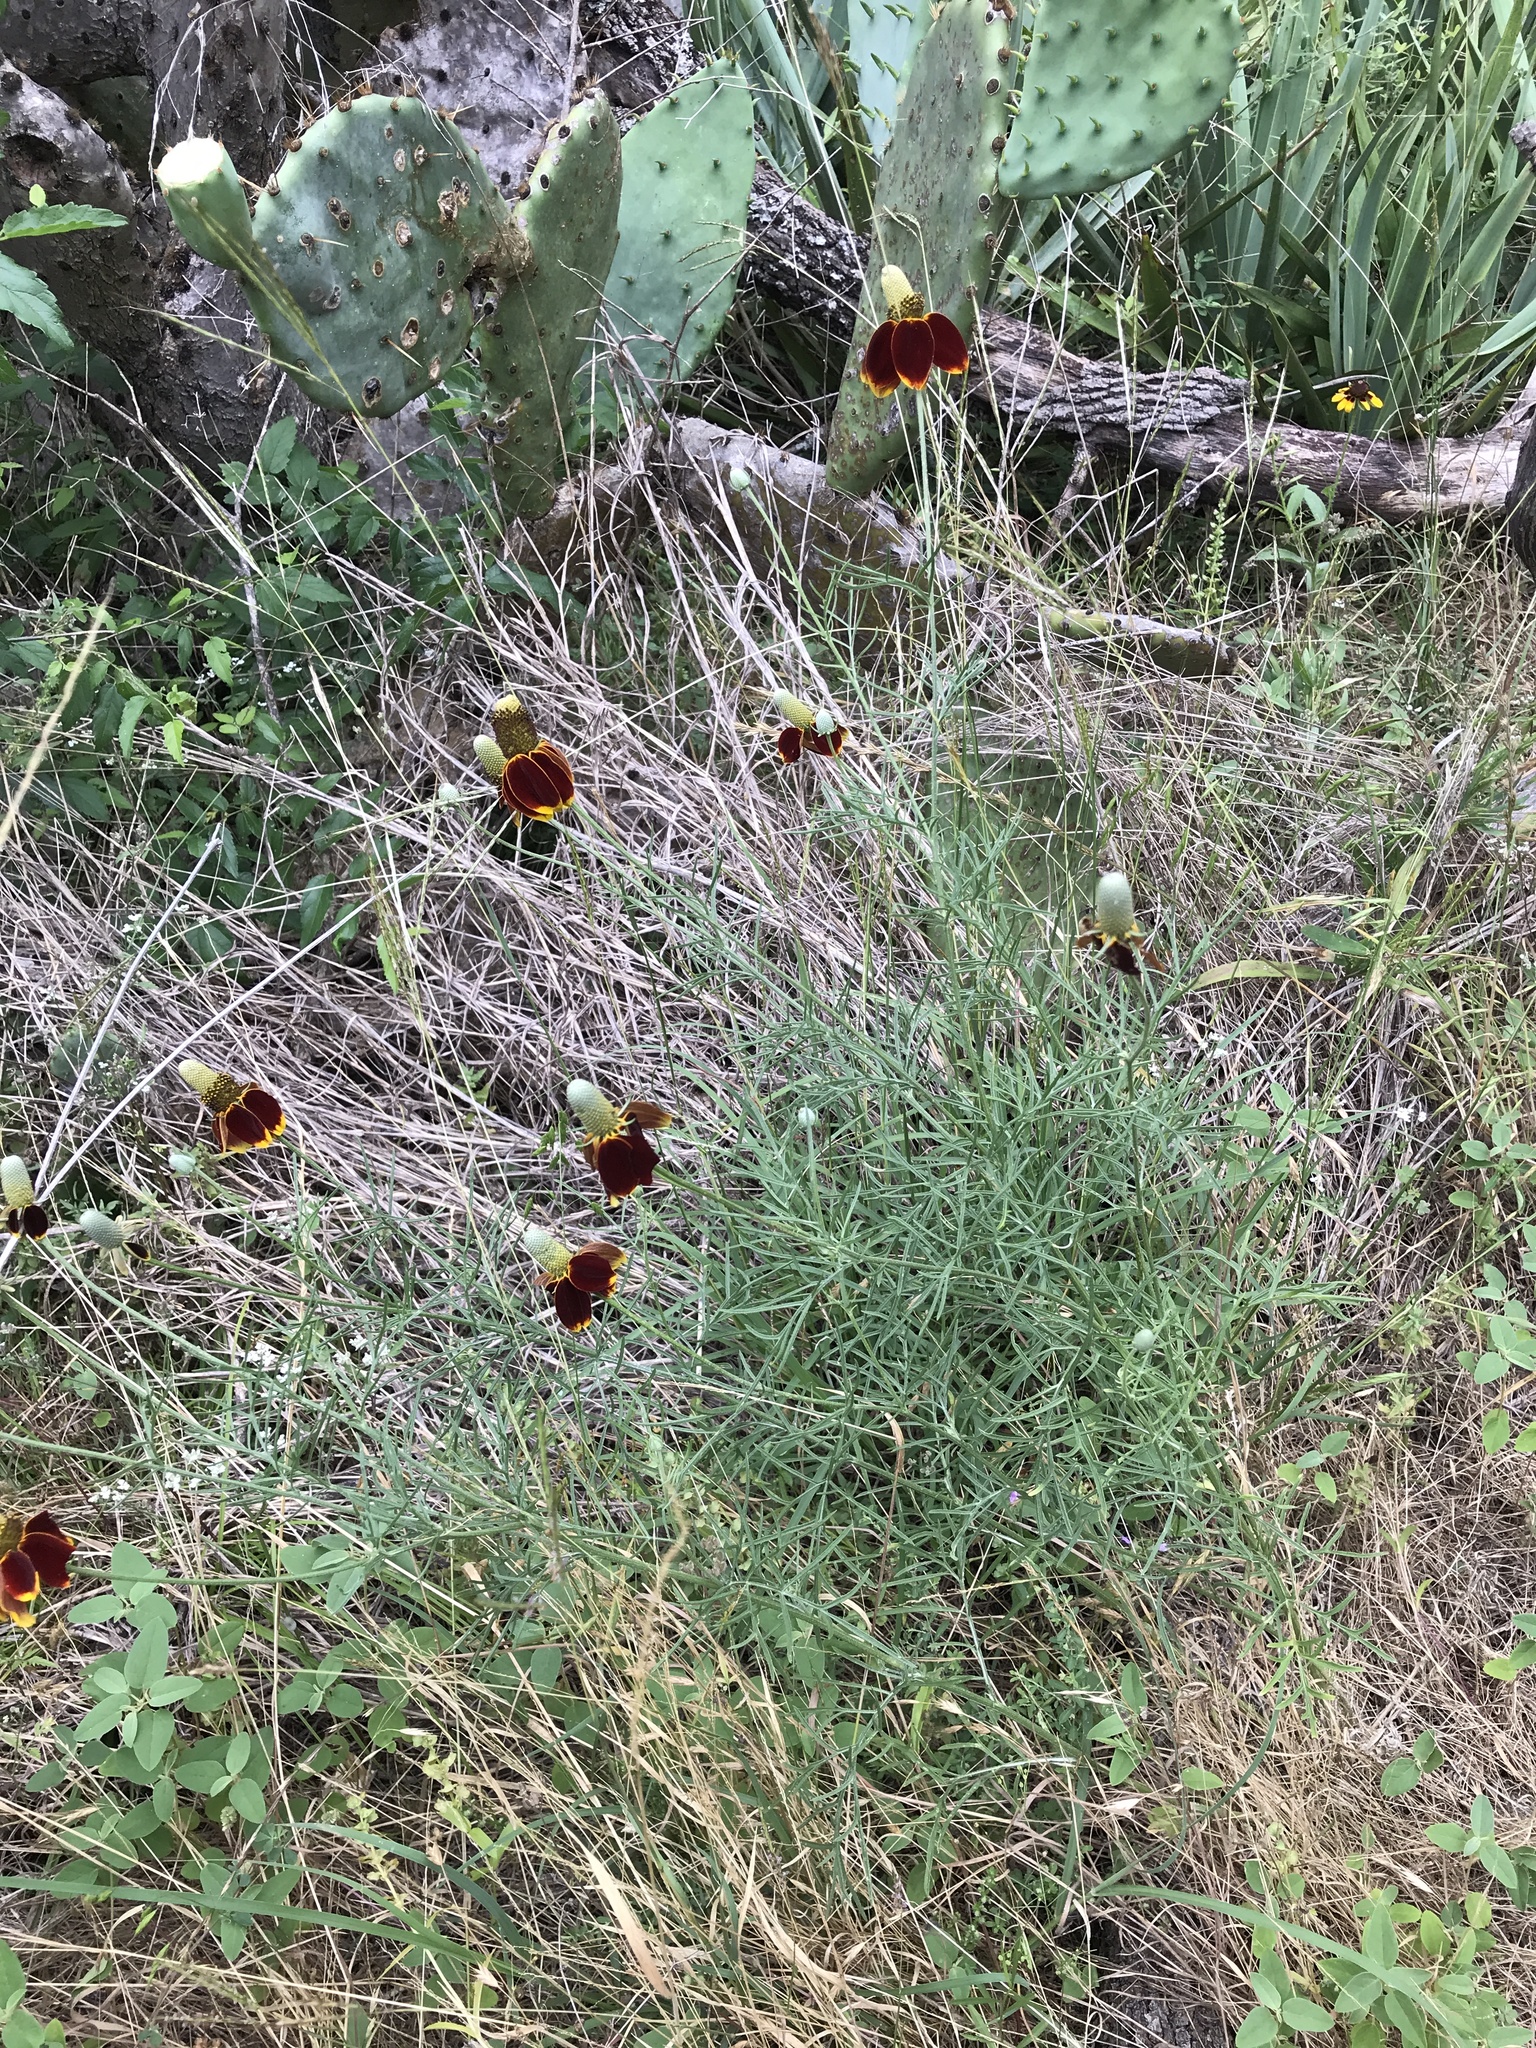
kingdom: Plantae
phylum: Tracheophyta
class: Magnoliopsida
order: Asterales
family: Asteraceae
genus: Ratibida
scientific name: Ratibida columnifera
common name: Prairie coneflower
